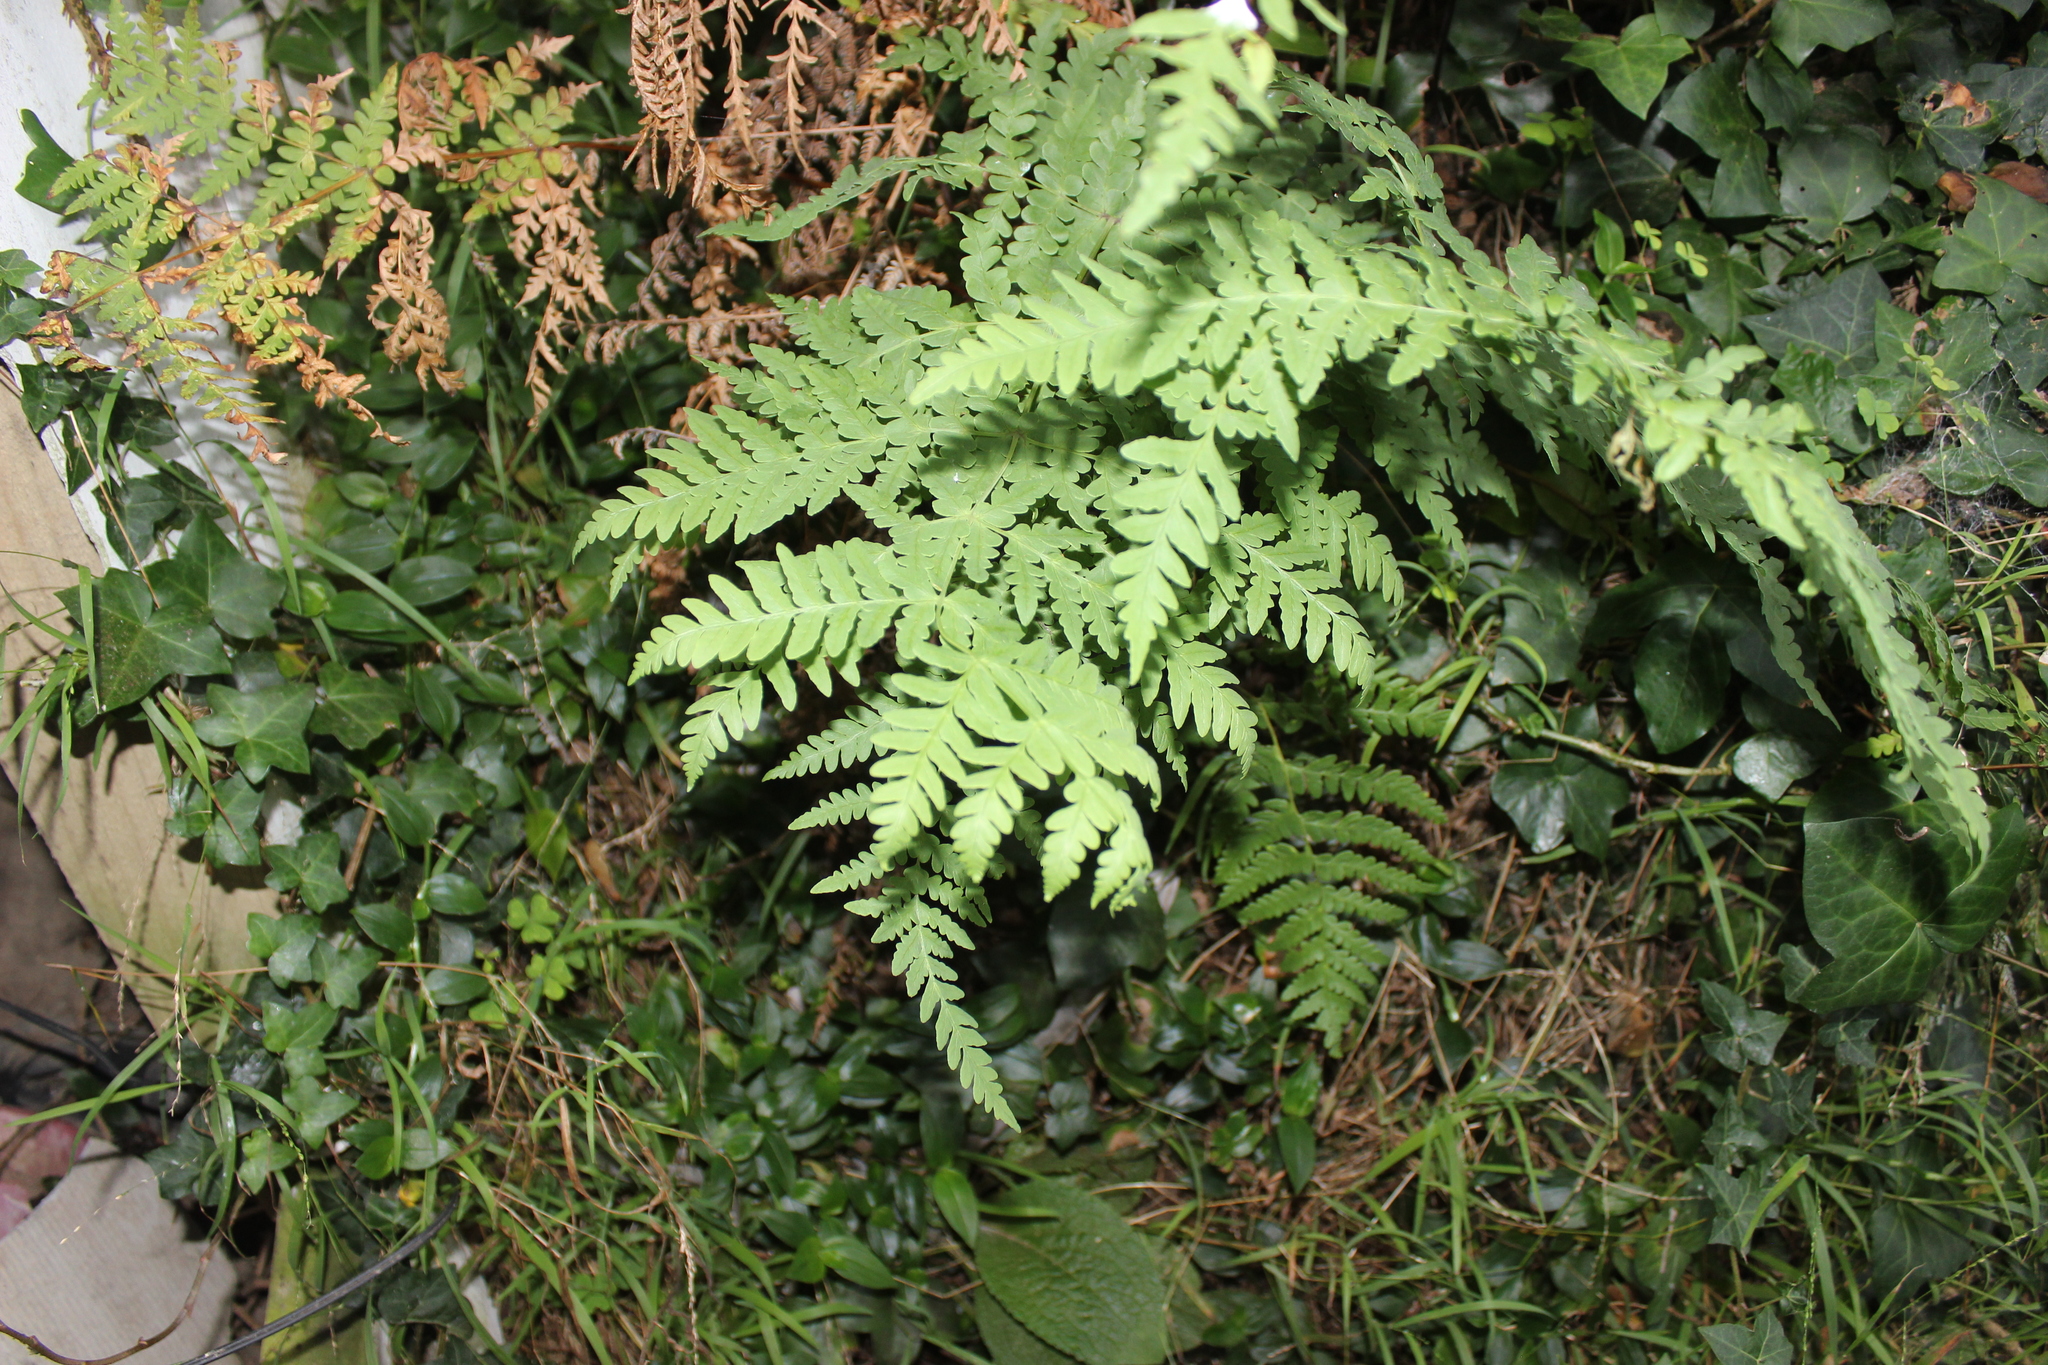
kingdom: Plantae
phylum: Tracheophyta
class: Polypodiopsida
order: Polypodiales
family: Dennstaedtiaceae
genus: Histiopteris
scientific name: Histiopteris incisa
